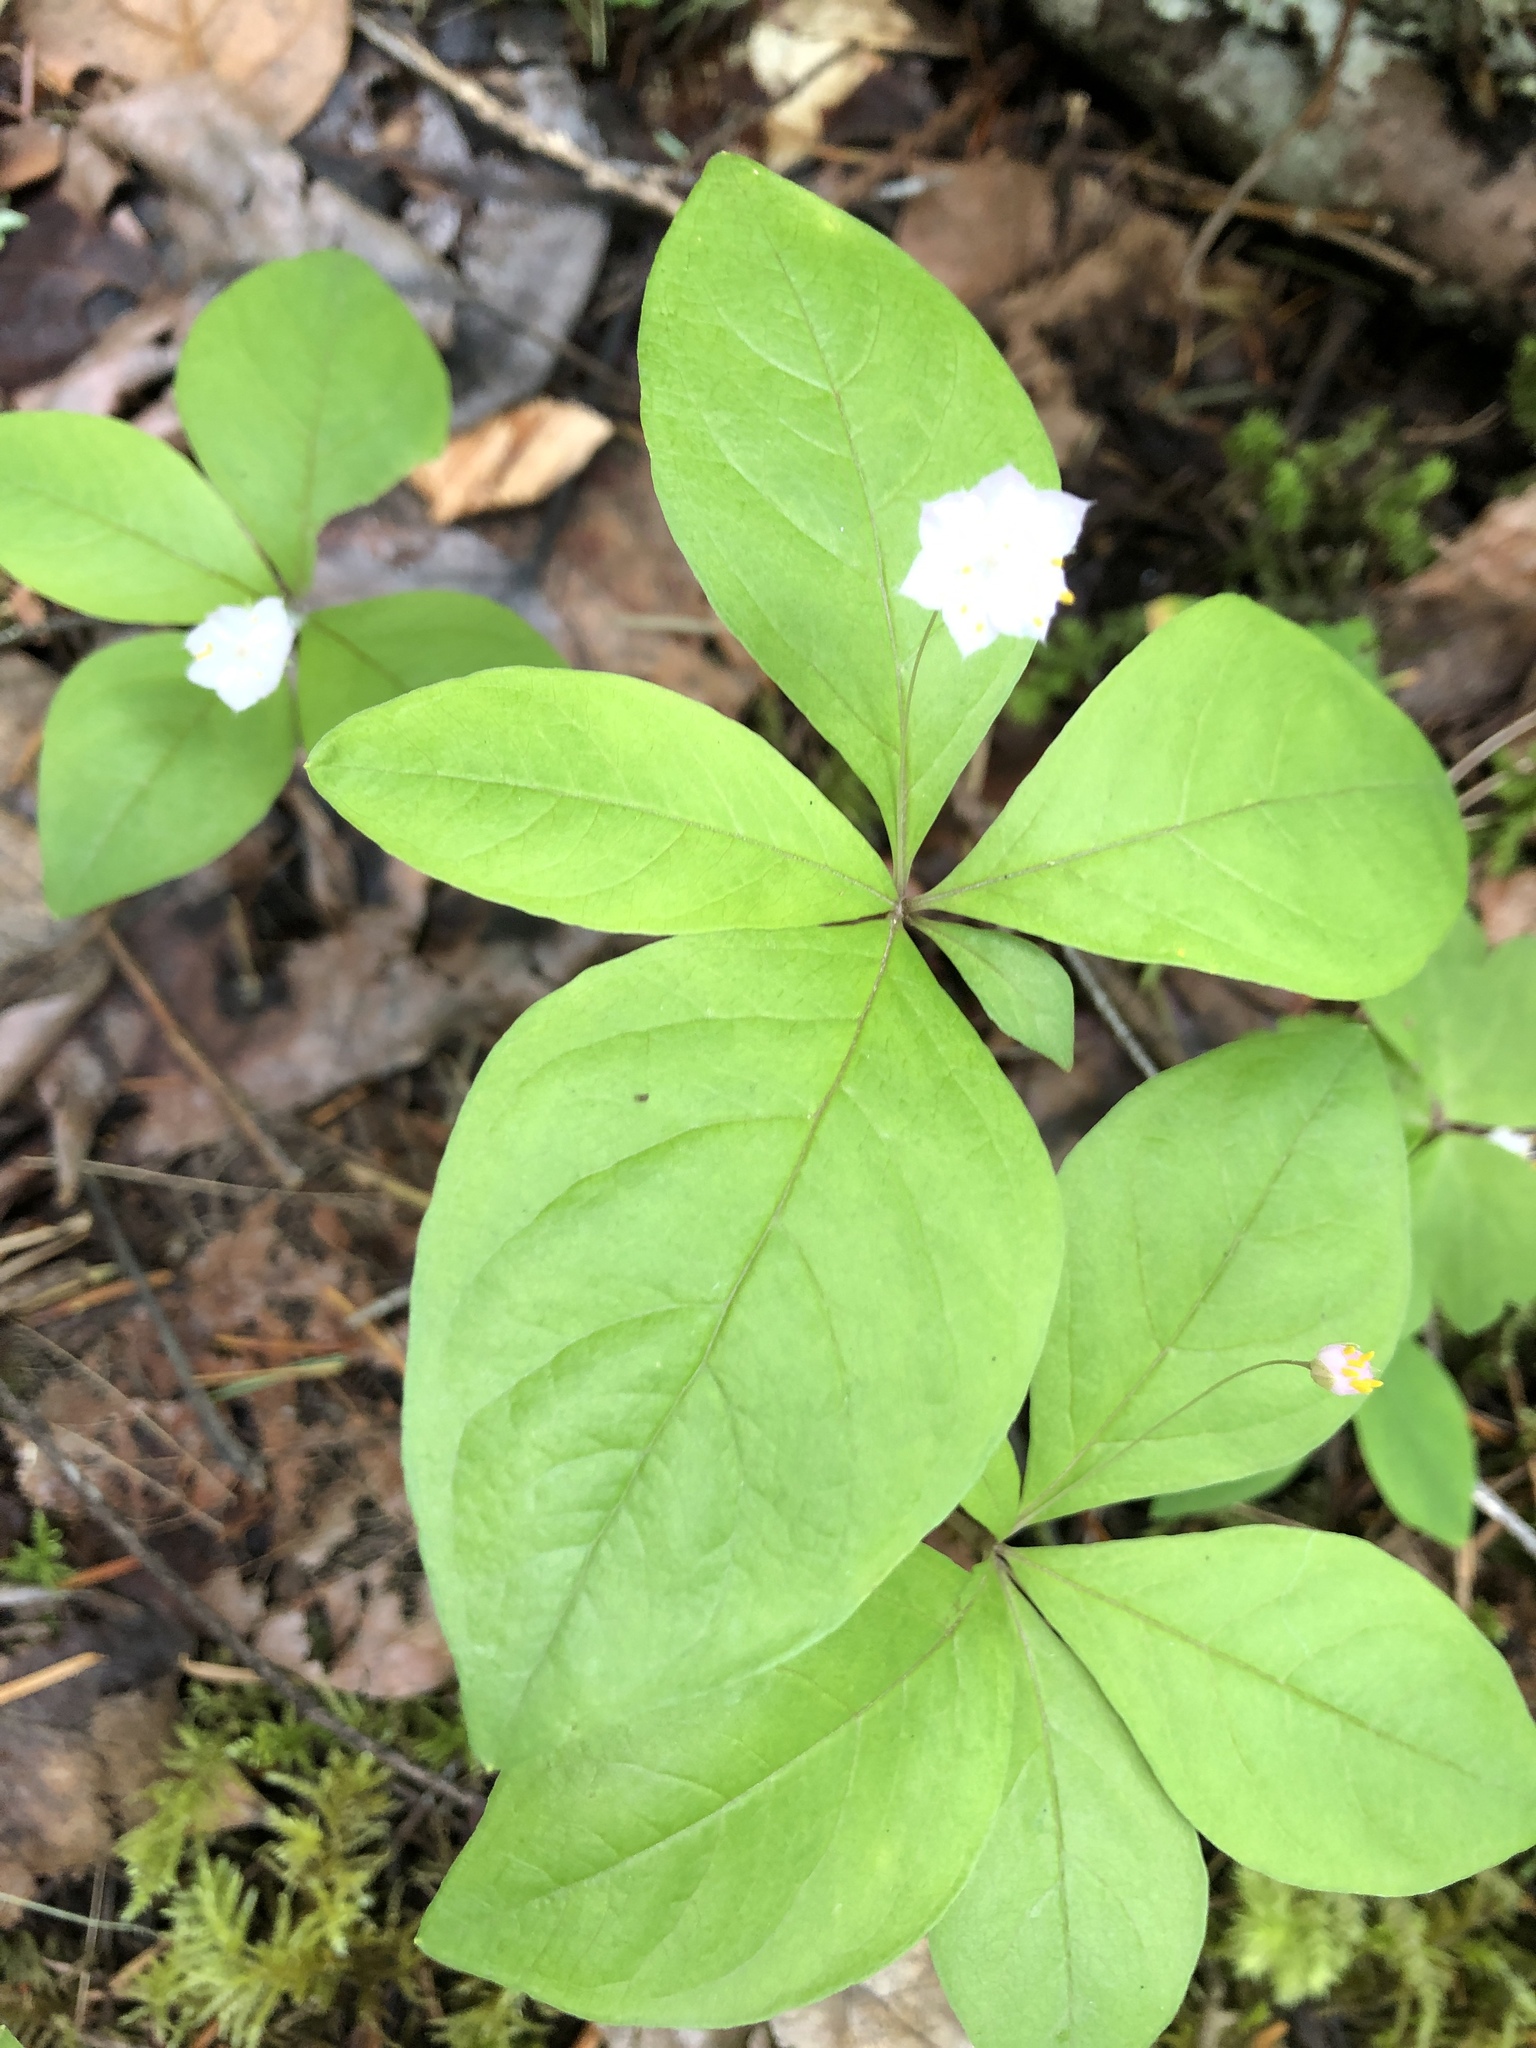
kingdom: Plantae
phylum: Tracheophyta
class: Magnoliopsida
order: Ericales
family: Primulaceae
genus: Lysimachia
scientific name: Lysimachia latifolia
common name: Pacific starflower
